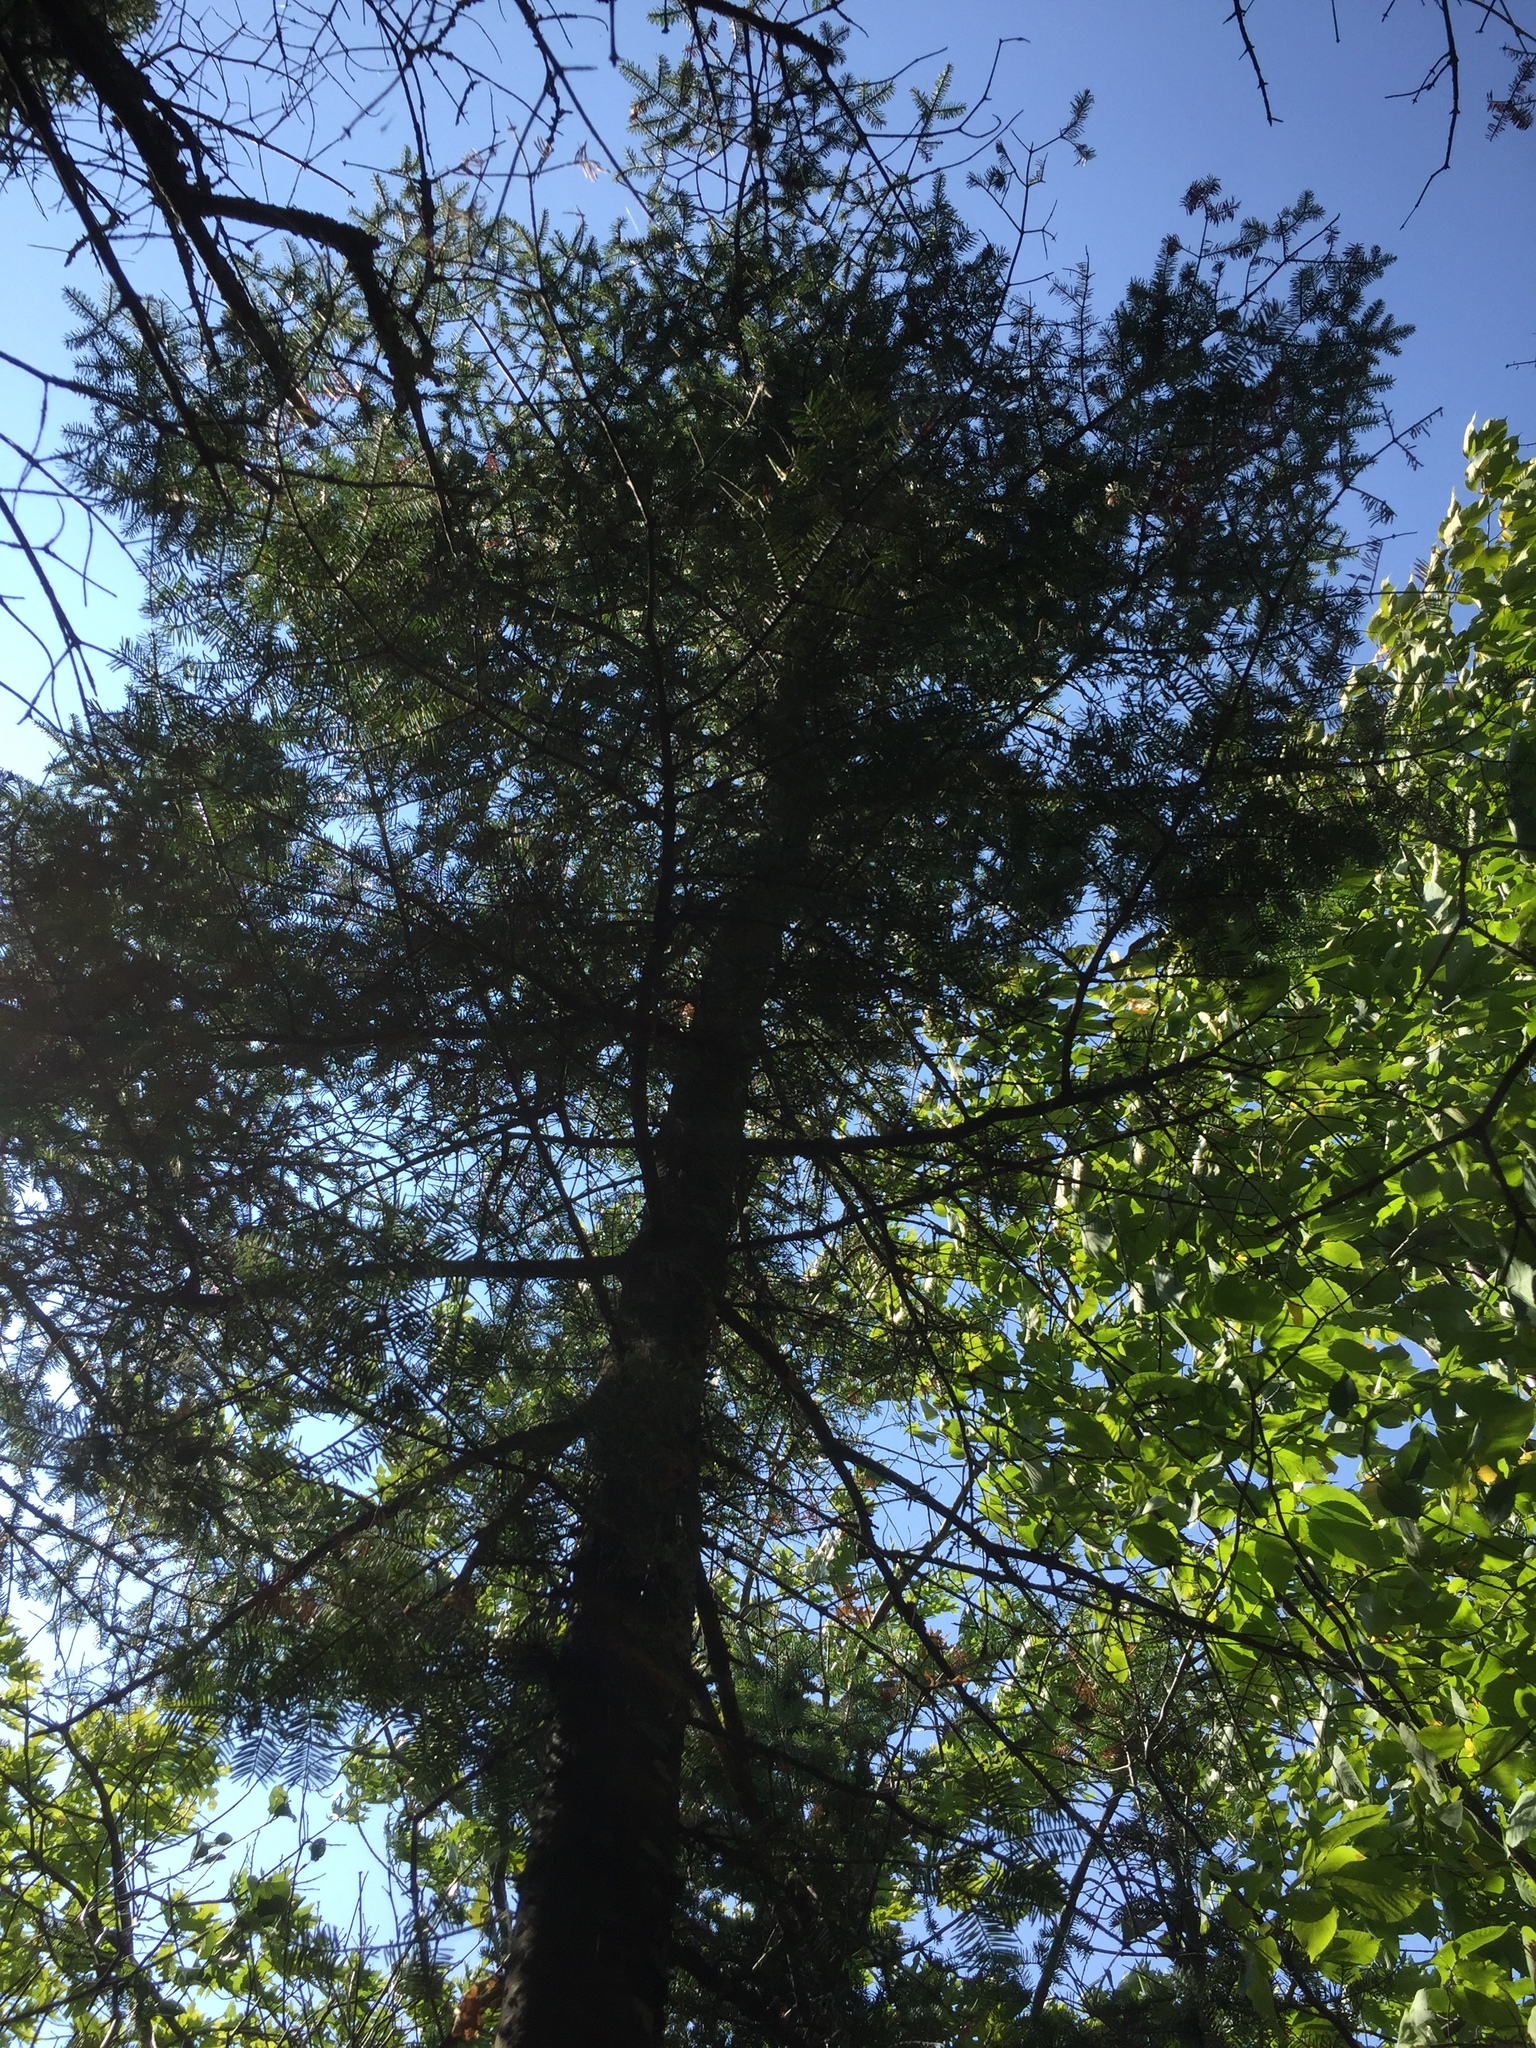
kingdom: Plantae
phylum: Tracheophyta
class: Pinopsida
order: Pinales
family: Pinaceae
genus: Abies
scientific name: Abies balsamea
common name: Balsam fir
